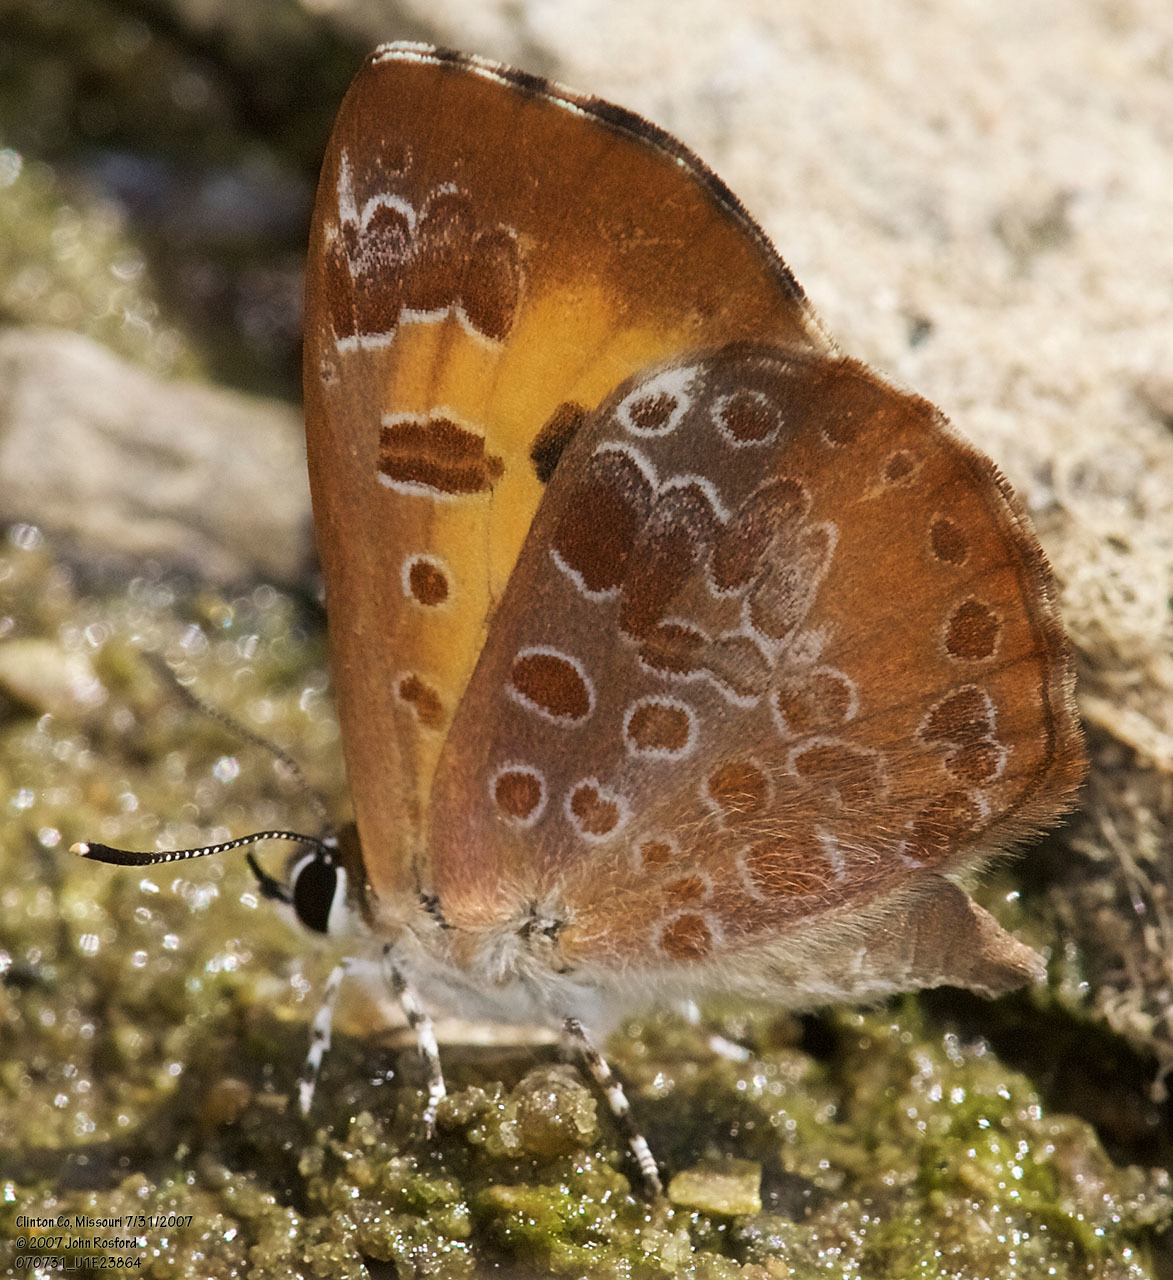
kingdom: Animalia
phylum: Arthropoda
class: Insecta
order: Lepidoptera
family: Lycaenidae
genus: Feniseca
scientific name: Feniseca tarquinius
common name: Harvester
